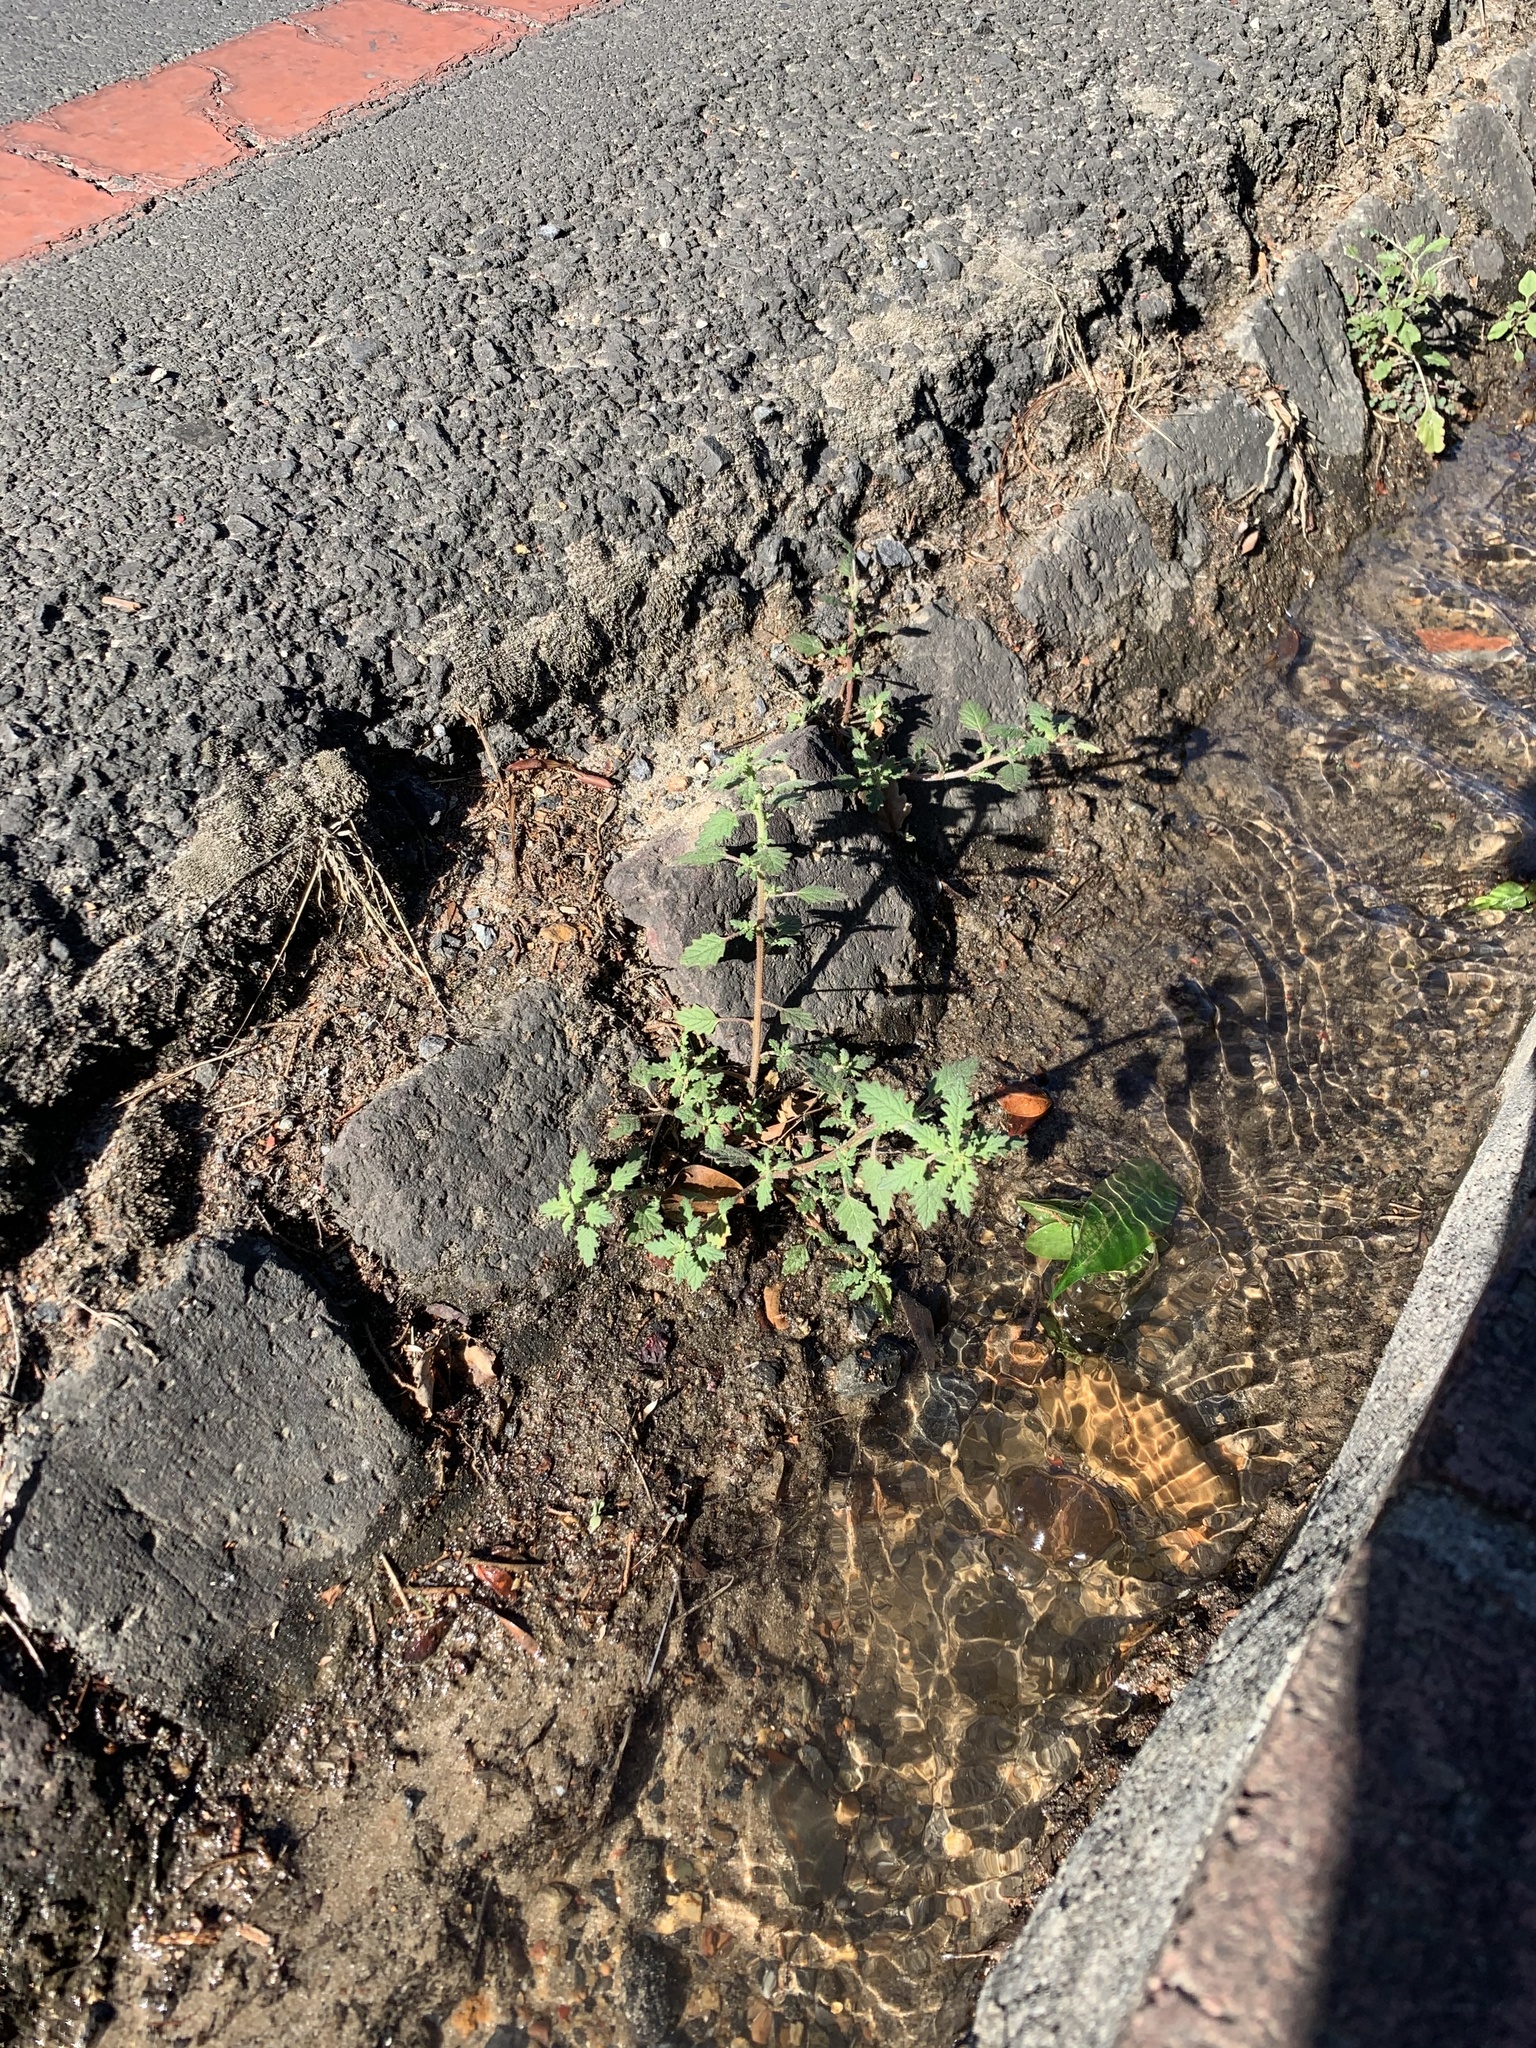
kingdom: Plantae
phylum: Tracheophyta
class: Magnoliopsida
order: Caryophyllales
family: Amaranthaceae
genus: Dysphania
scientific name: Dysphania pumilio
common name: Clammy goosefoot
